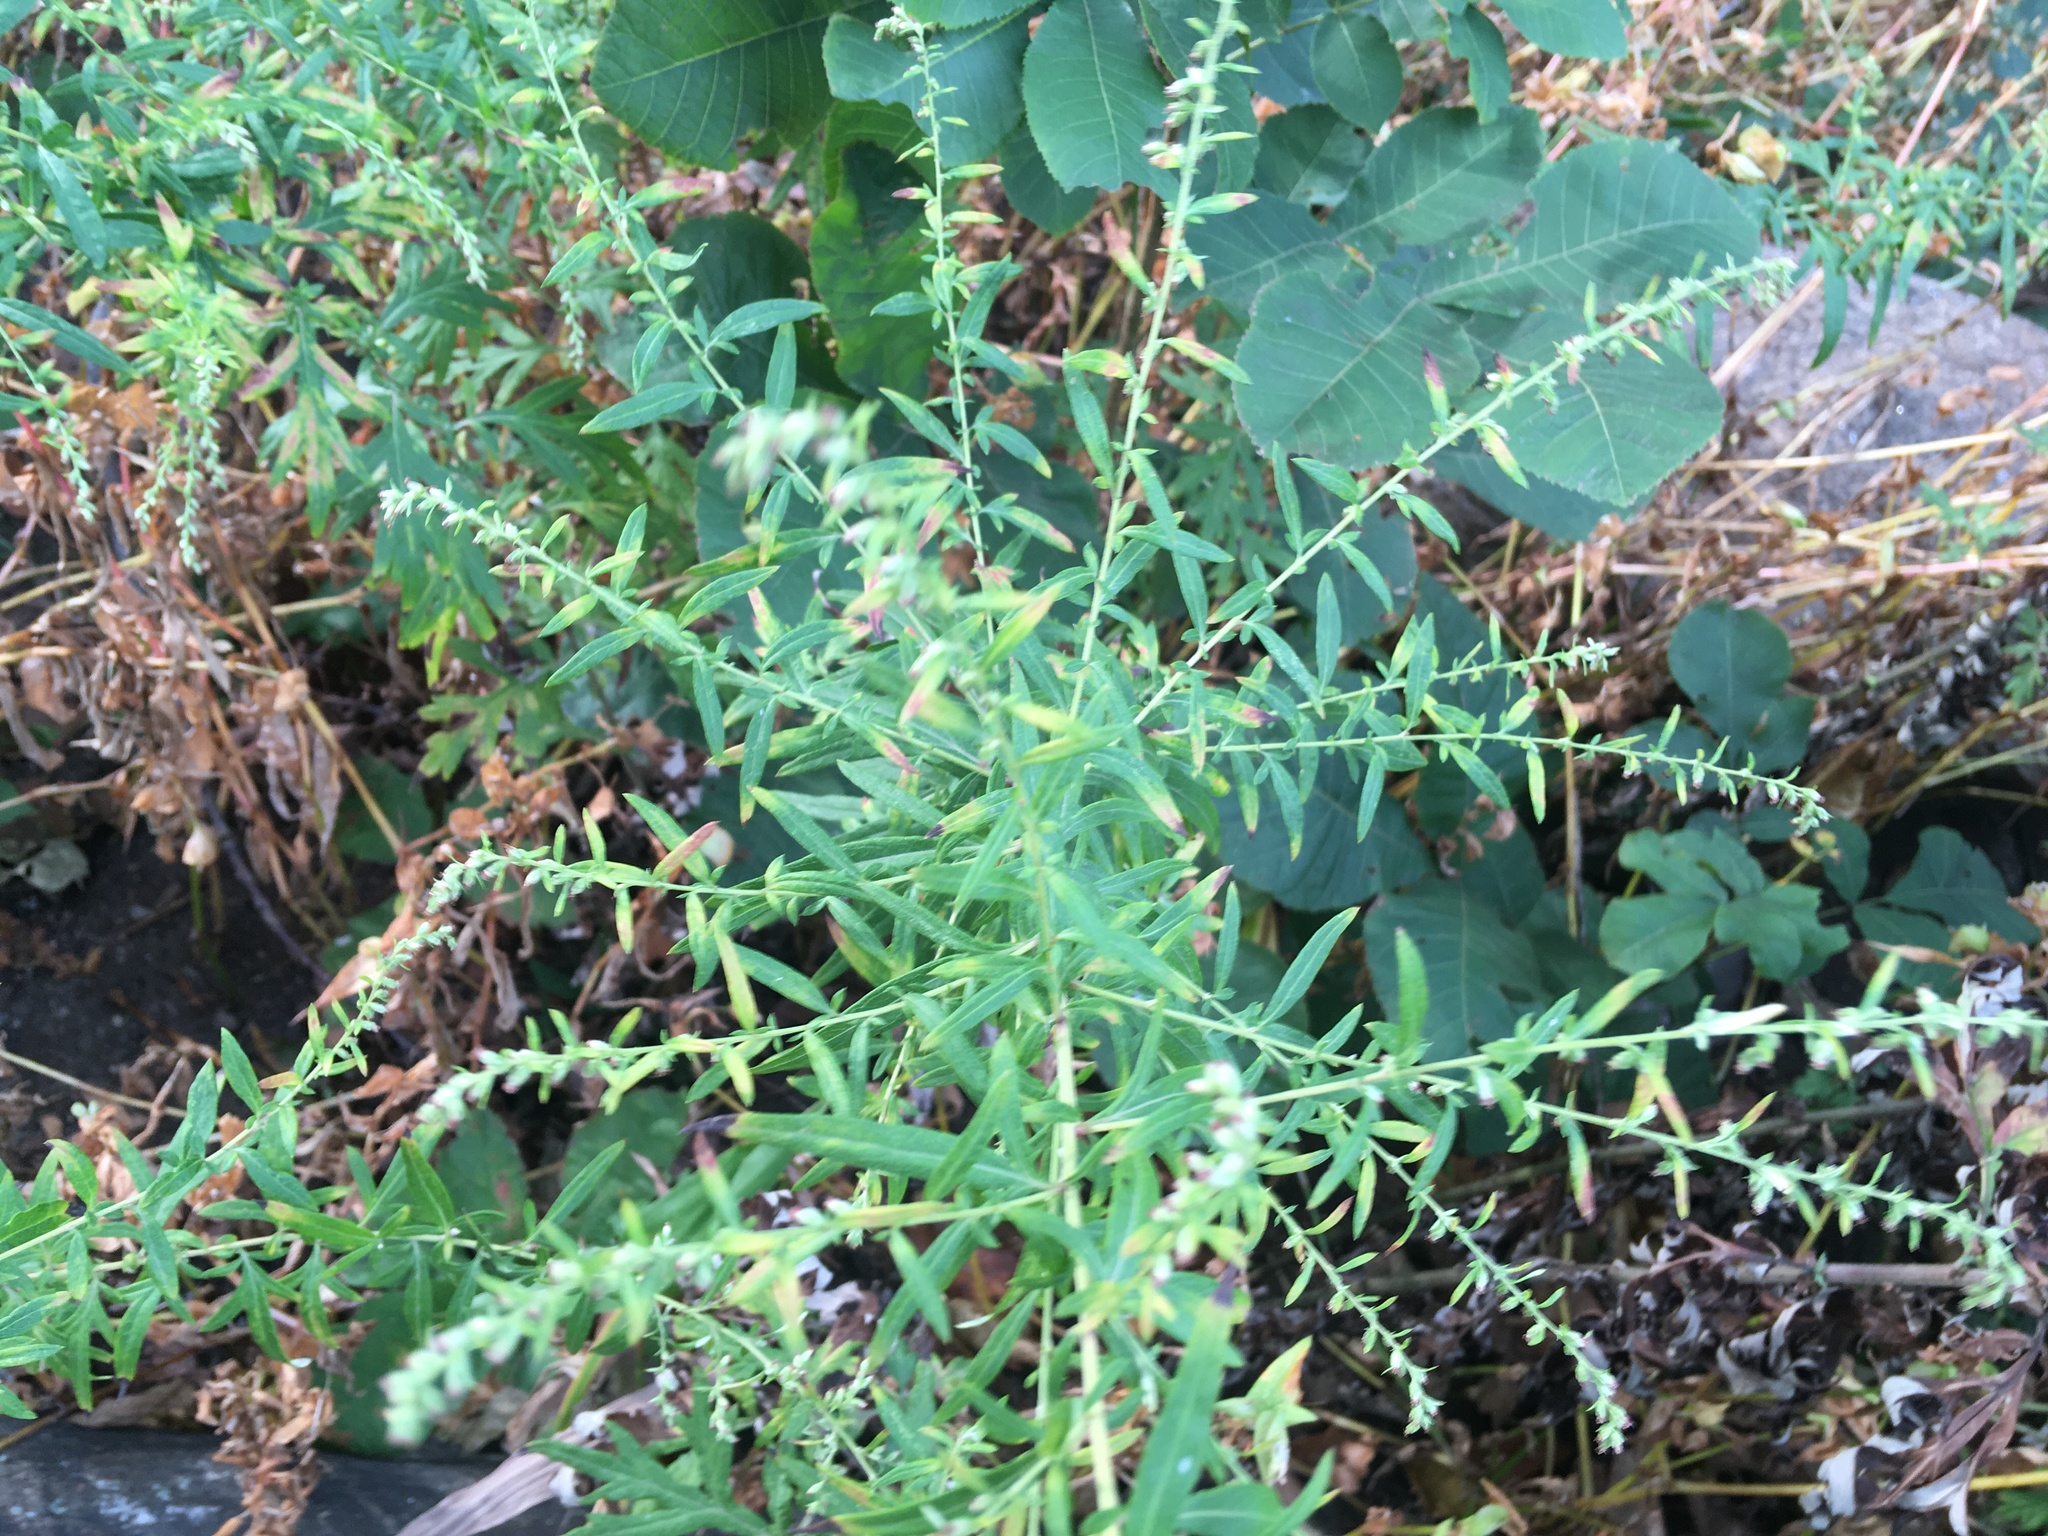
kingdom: Plantae
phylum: Tracheophyta
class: Magnoliopsida
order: Asterales
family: Asteraceae
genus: Artemisia
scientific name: Artemisia vulgaris
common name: Mugwort
